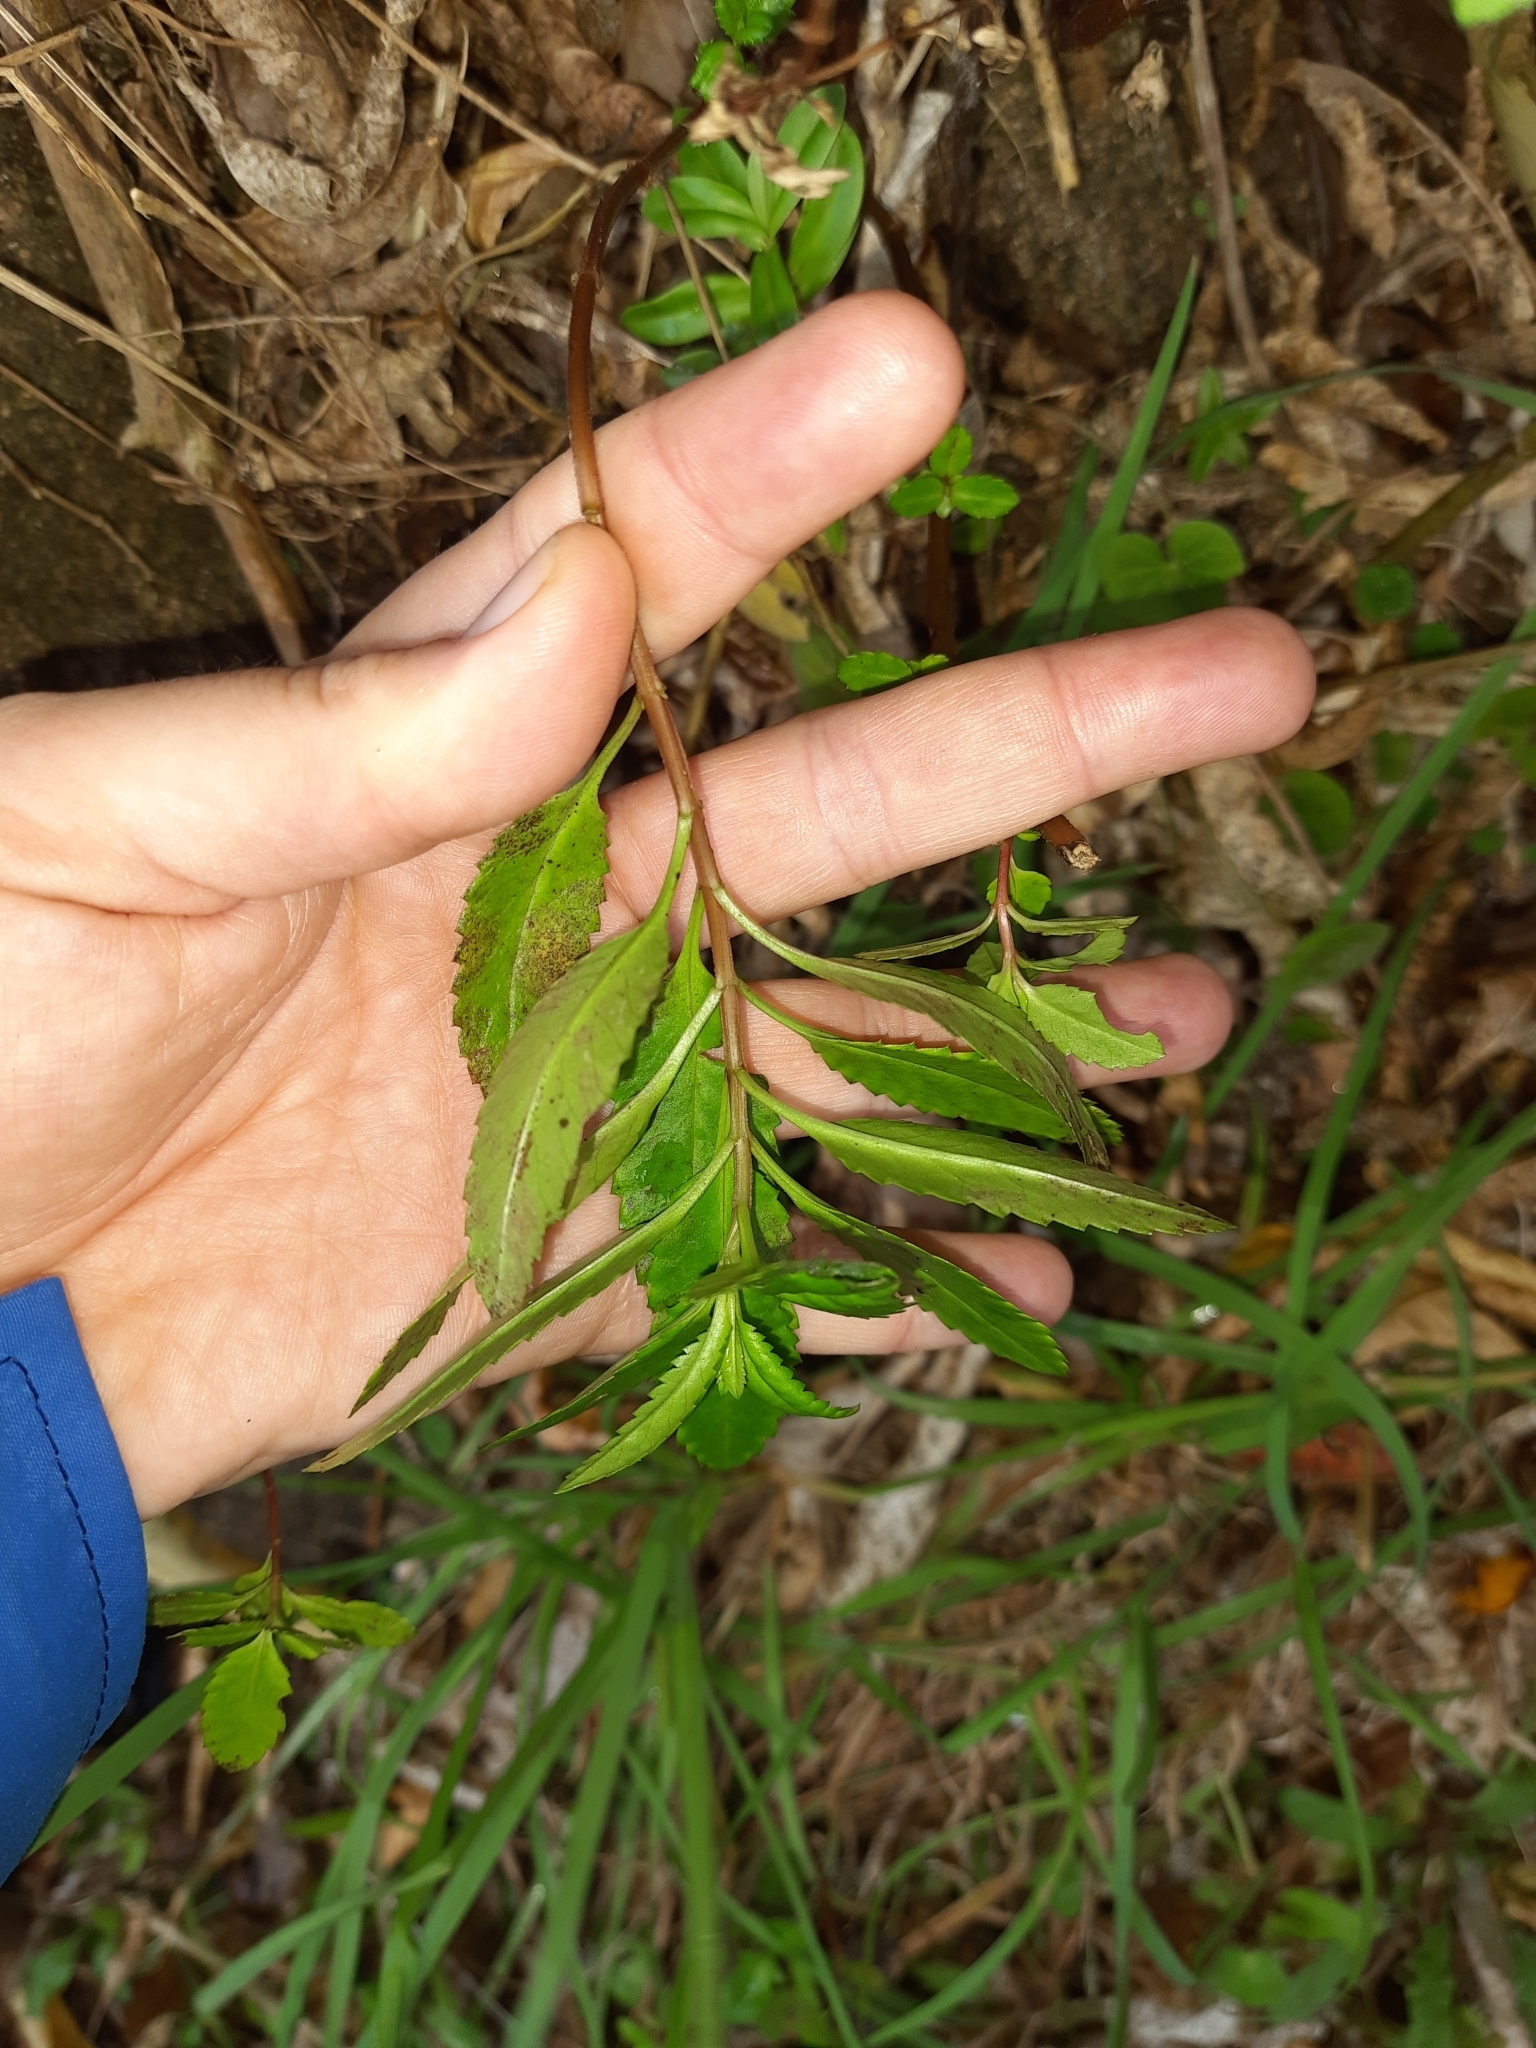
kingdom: Plantae
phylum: Tracheophyta
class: Magnoliopsida
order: Saxifragales
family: Haloragaceae
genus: Haloragis
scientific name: Haloragis erecta
